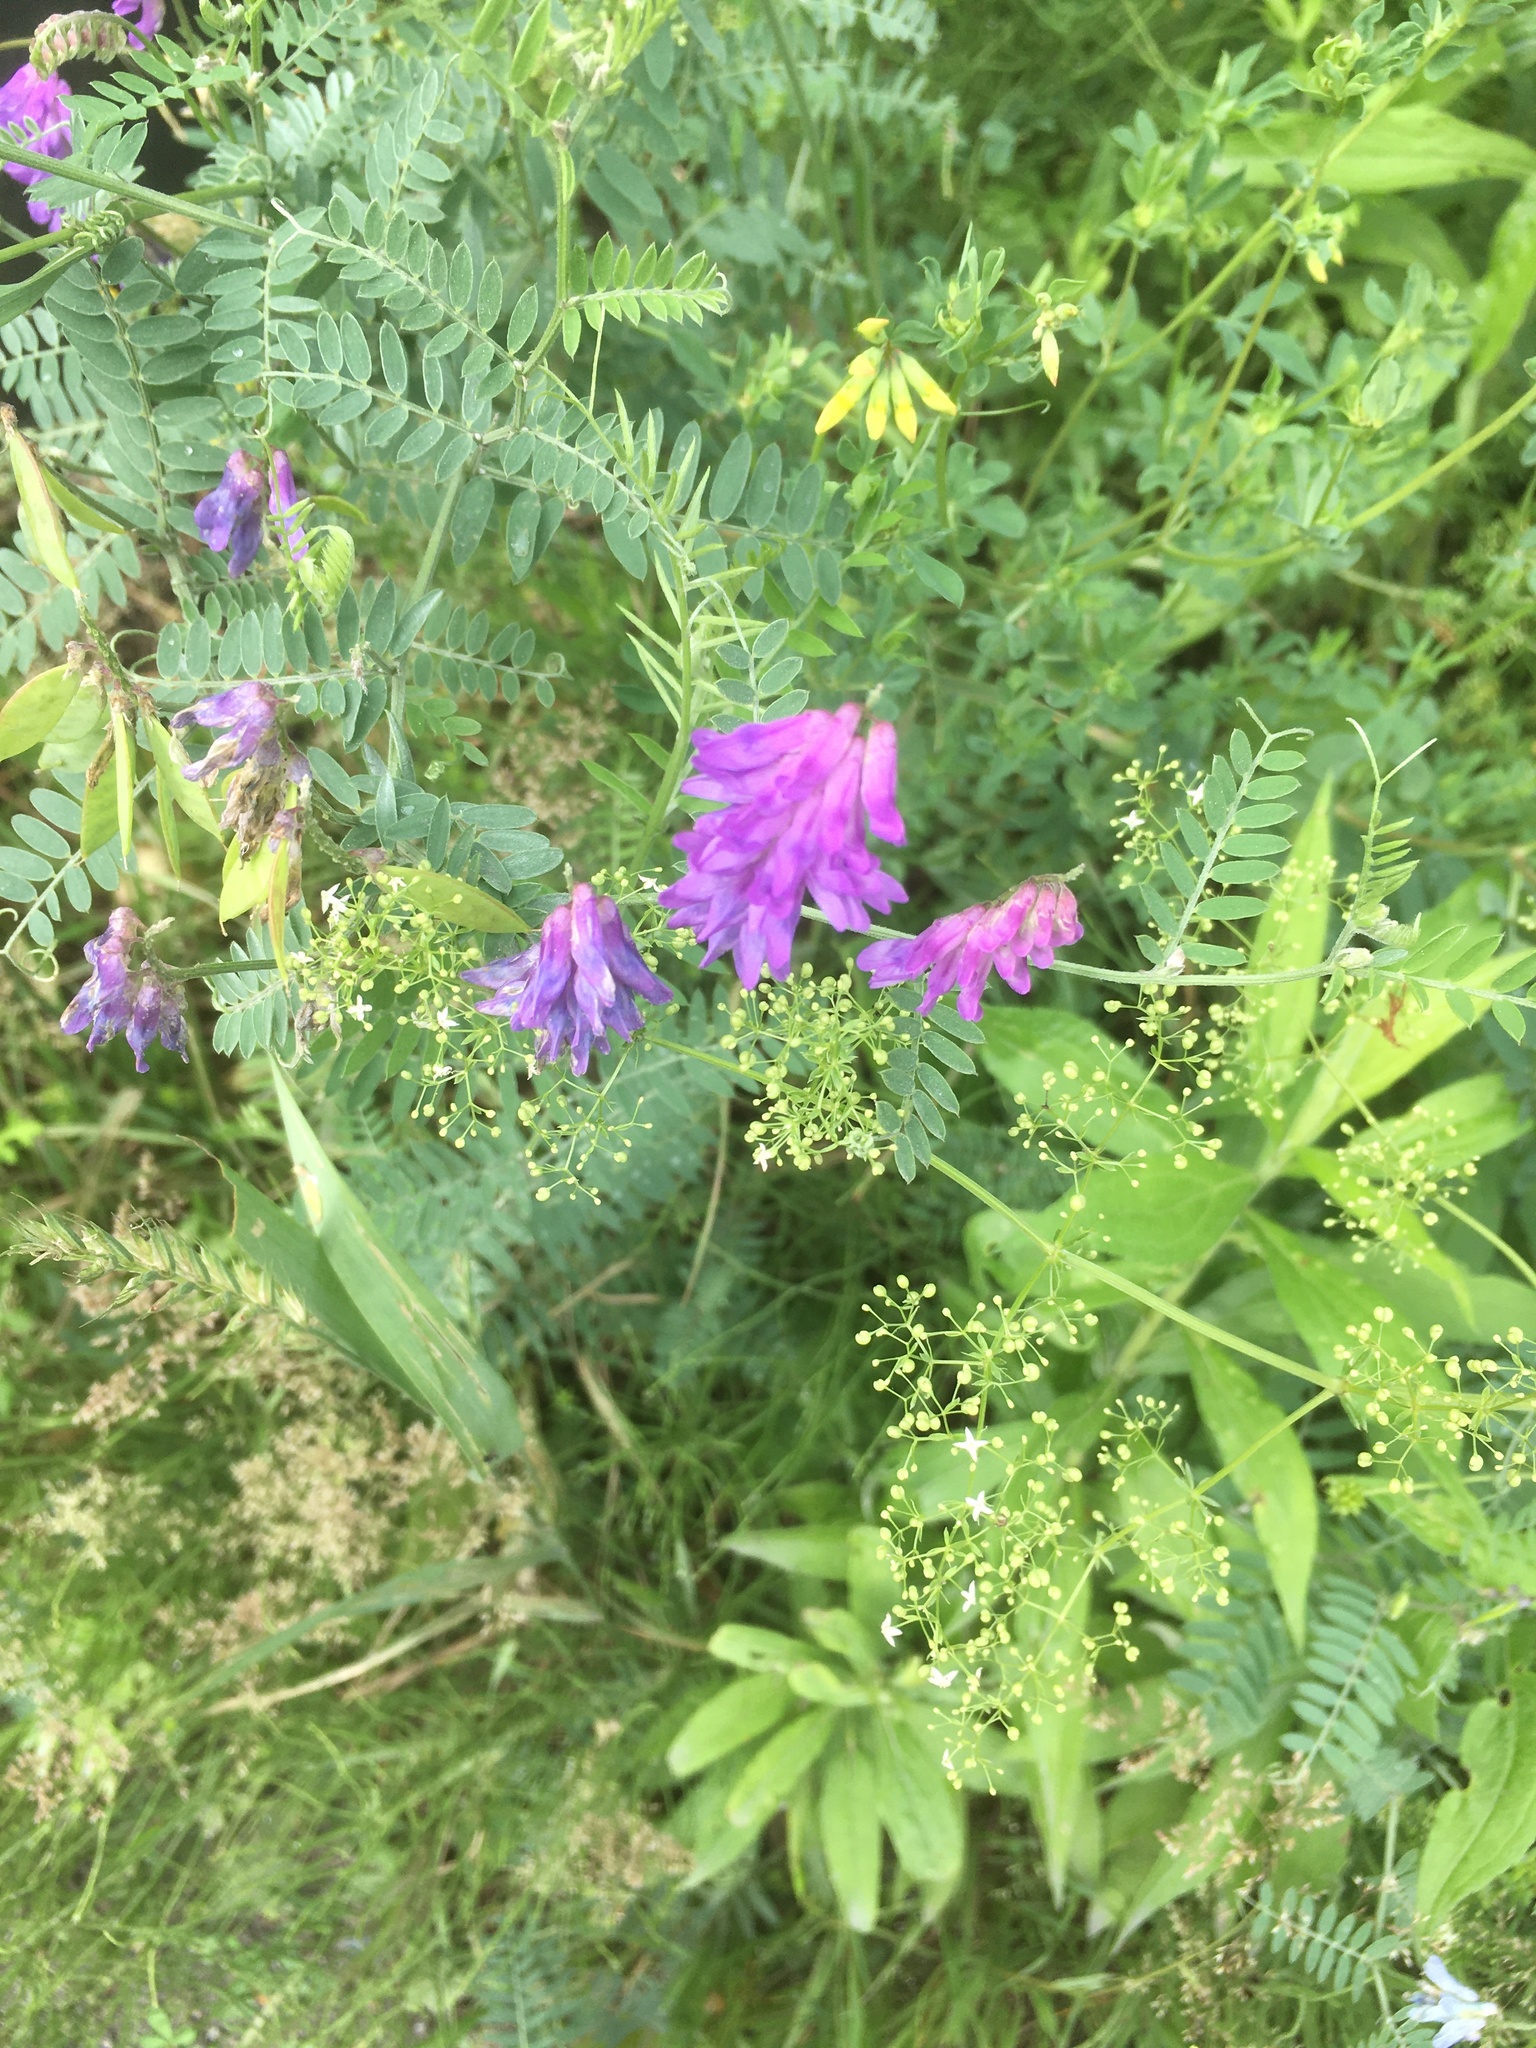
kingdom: Plantae
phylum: Tracheophyta
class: Magnoliopsida
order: Fabales
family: Fabaceae
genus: Vicia
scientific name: Vicia cracca
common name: Bird vetch
